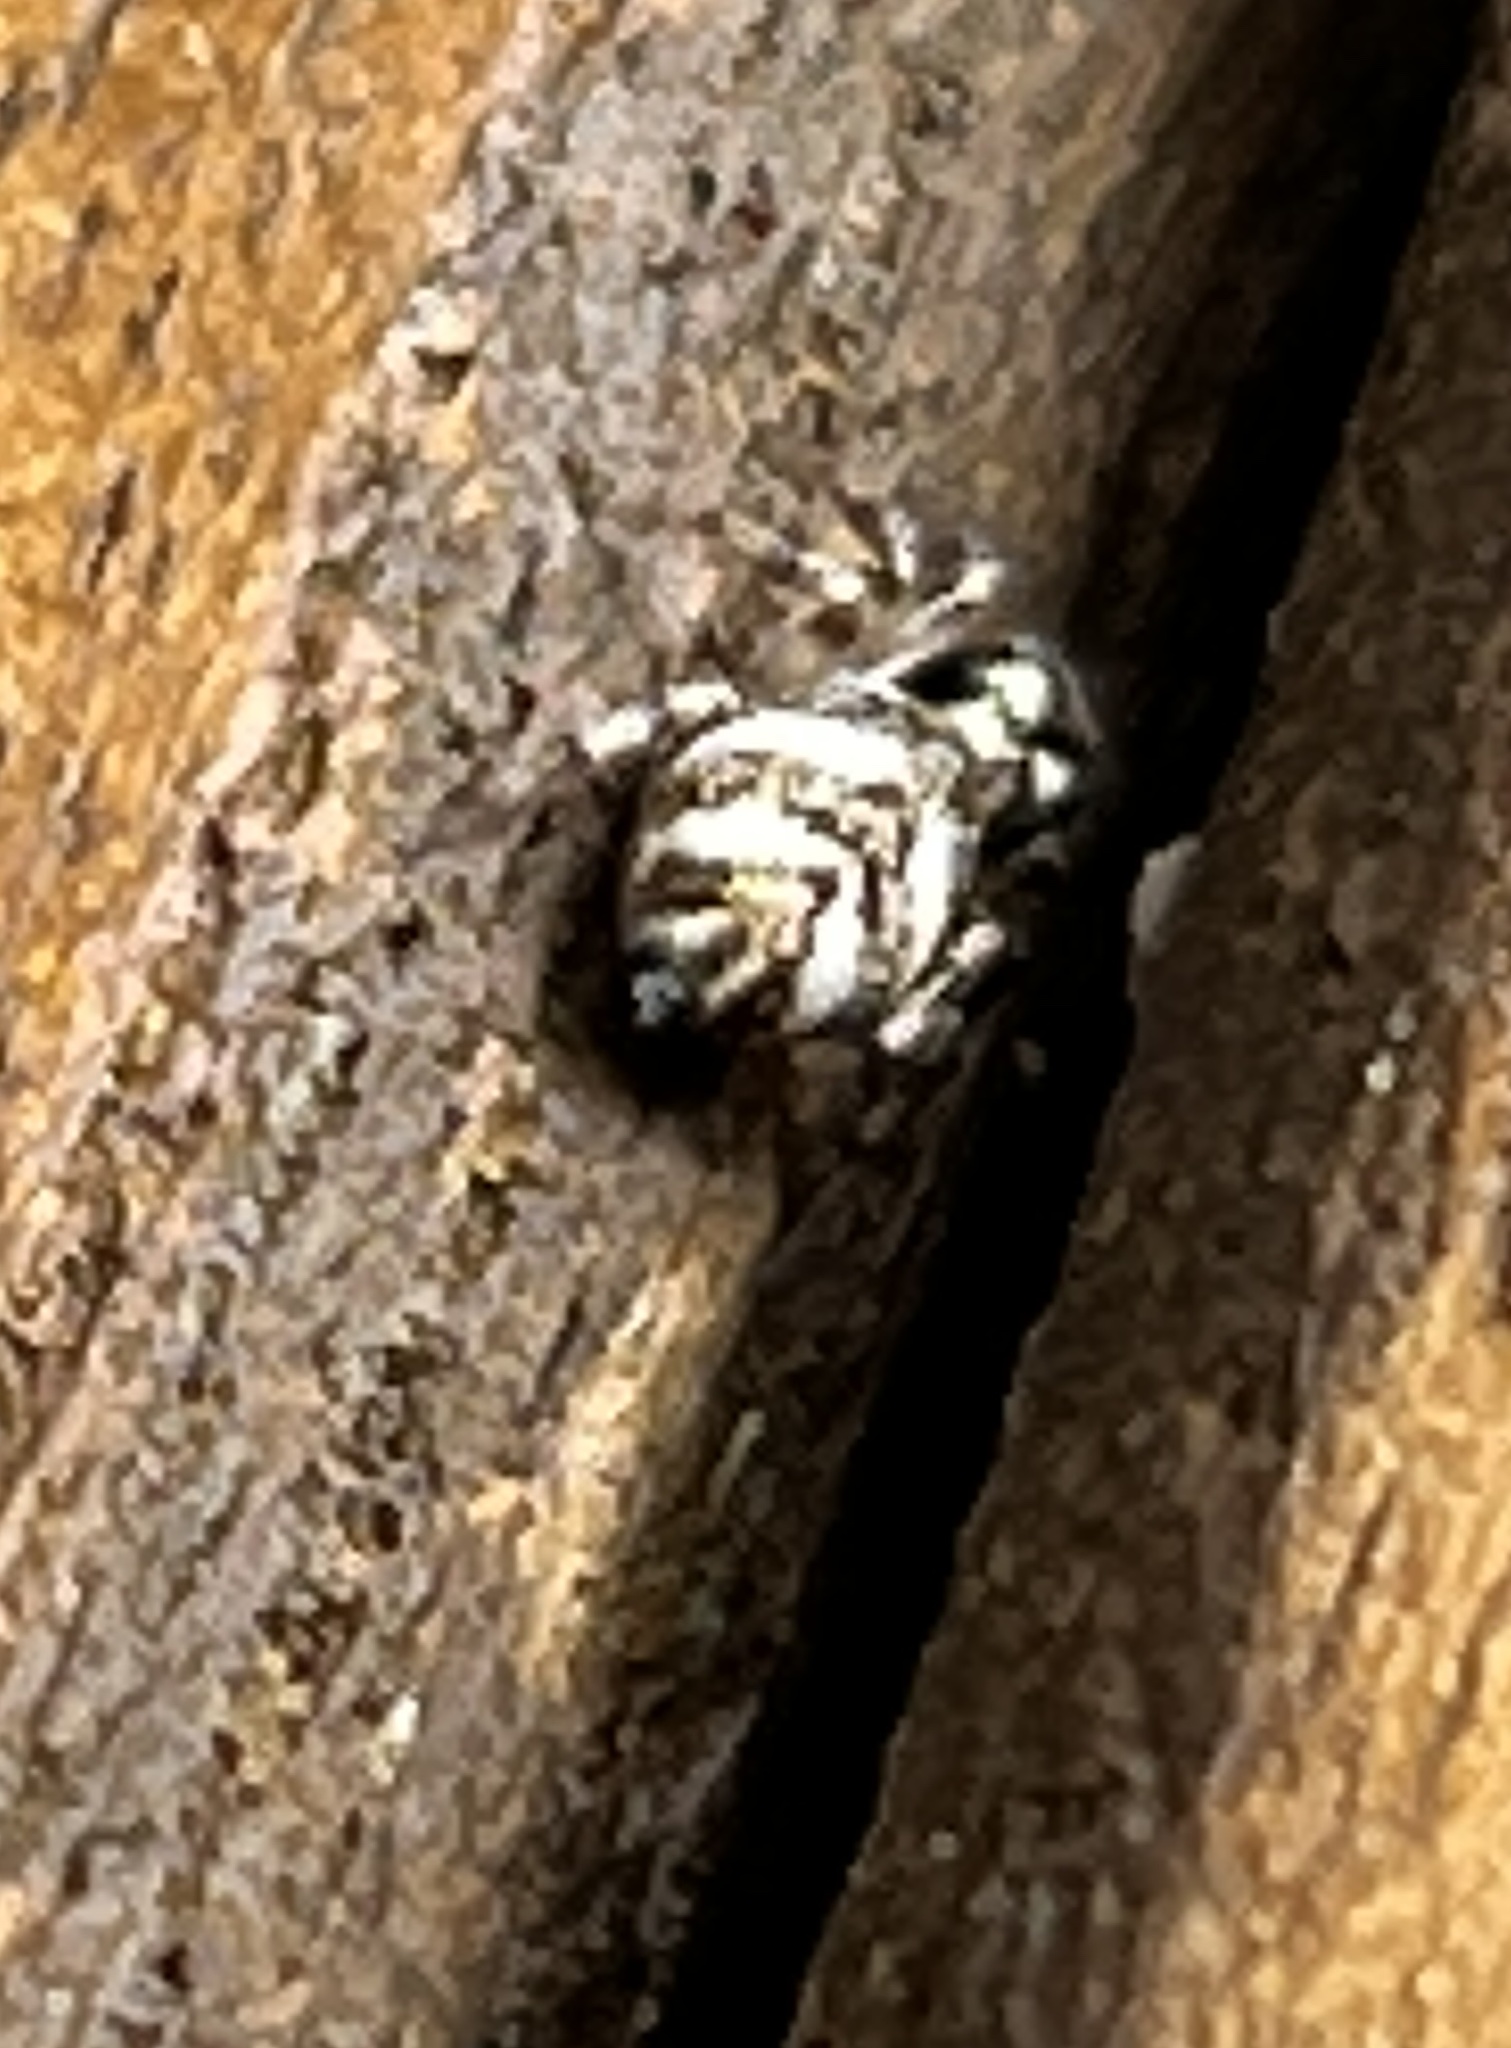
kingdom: Animalia
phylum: Arthropoda
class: Arachnida
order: Araneae
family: Salticidae
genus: Salticus
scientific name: Salticus scenicus
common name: Zebra jumper
